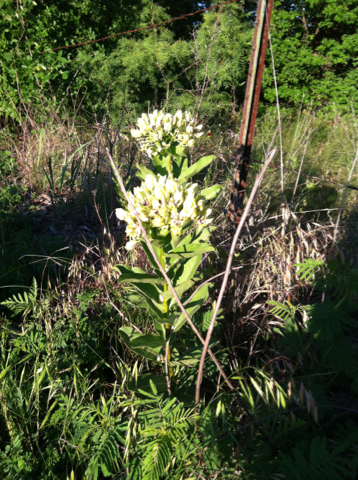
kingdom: Plantae
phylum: Tracheophyta
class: Magnoliopsida
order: Gentianales
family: Apocynaceae
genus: Asclepias
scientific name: Asclepias viridis
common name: Antelope-horns
